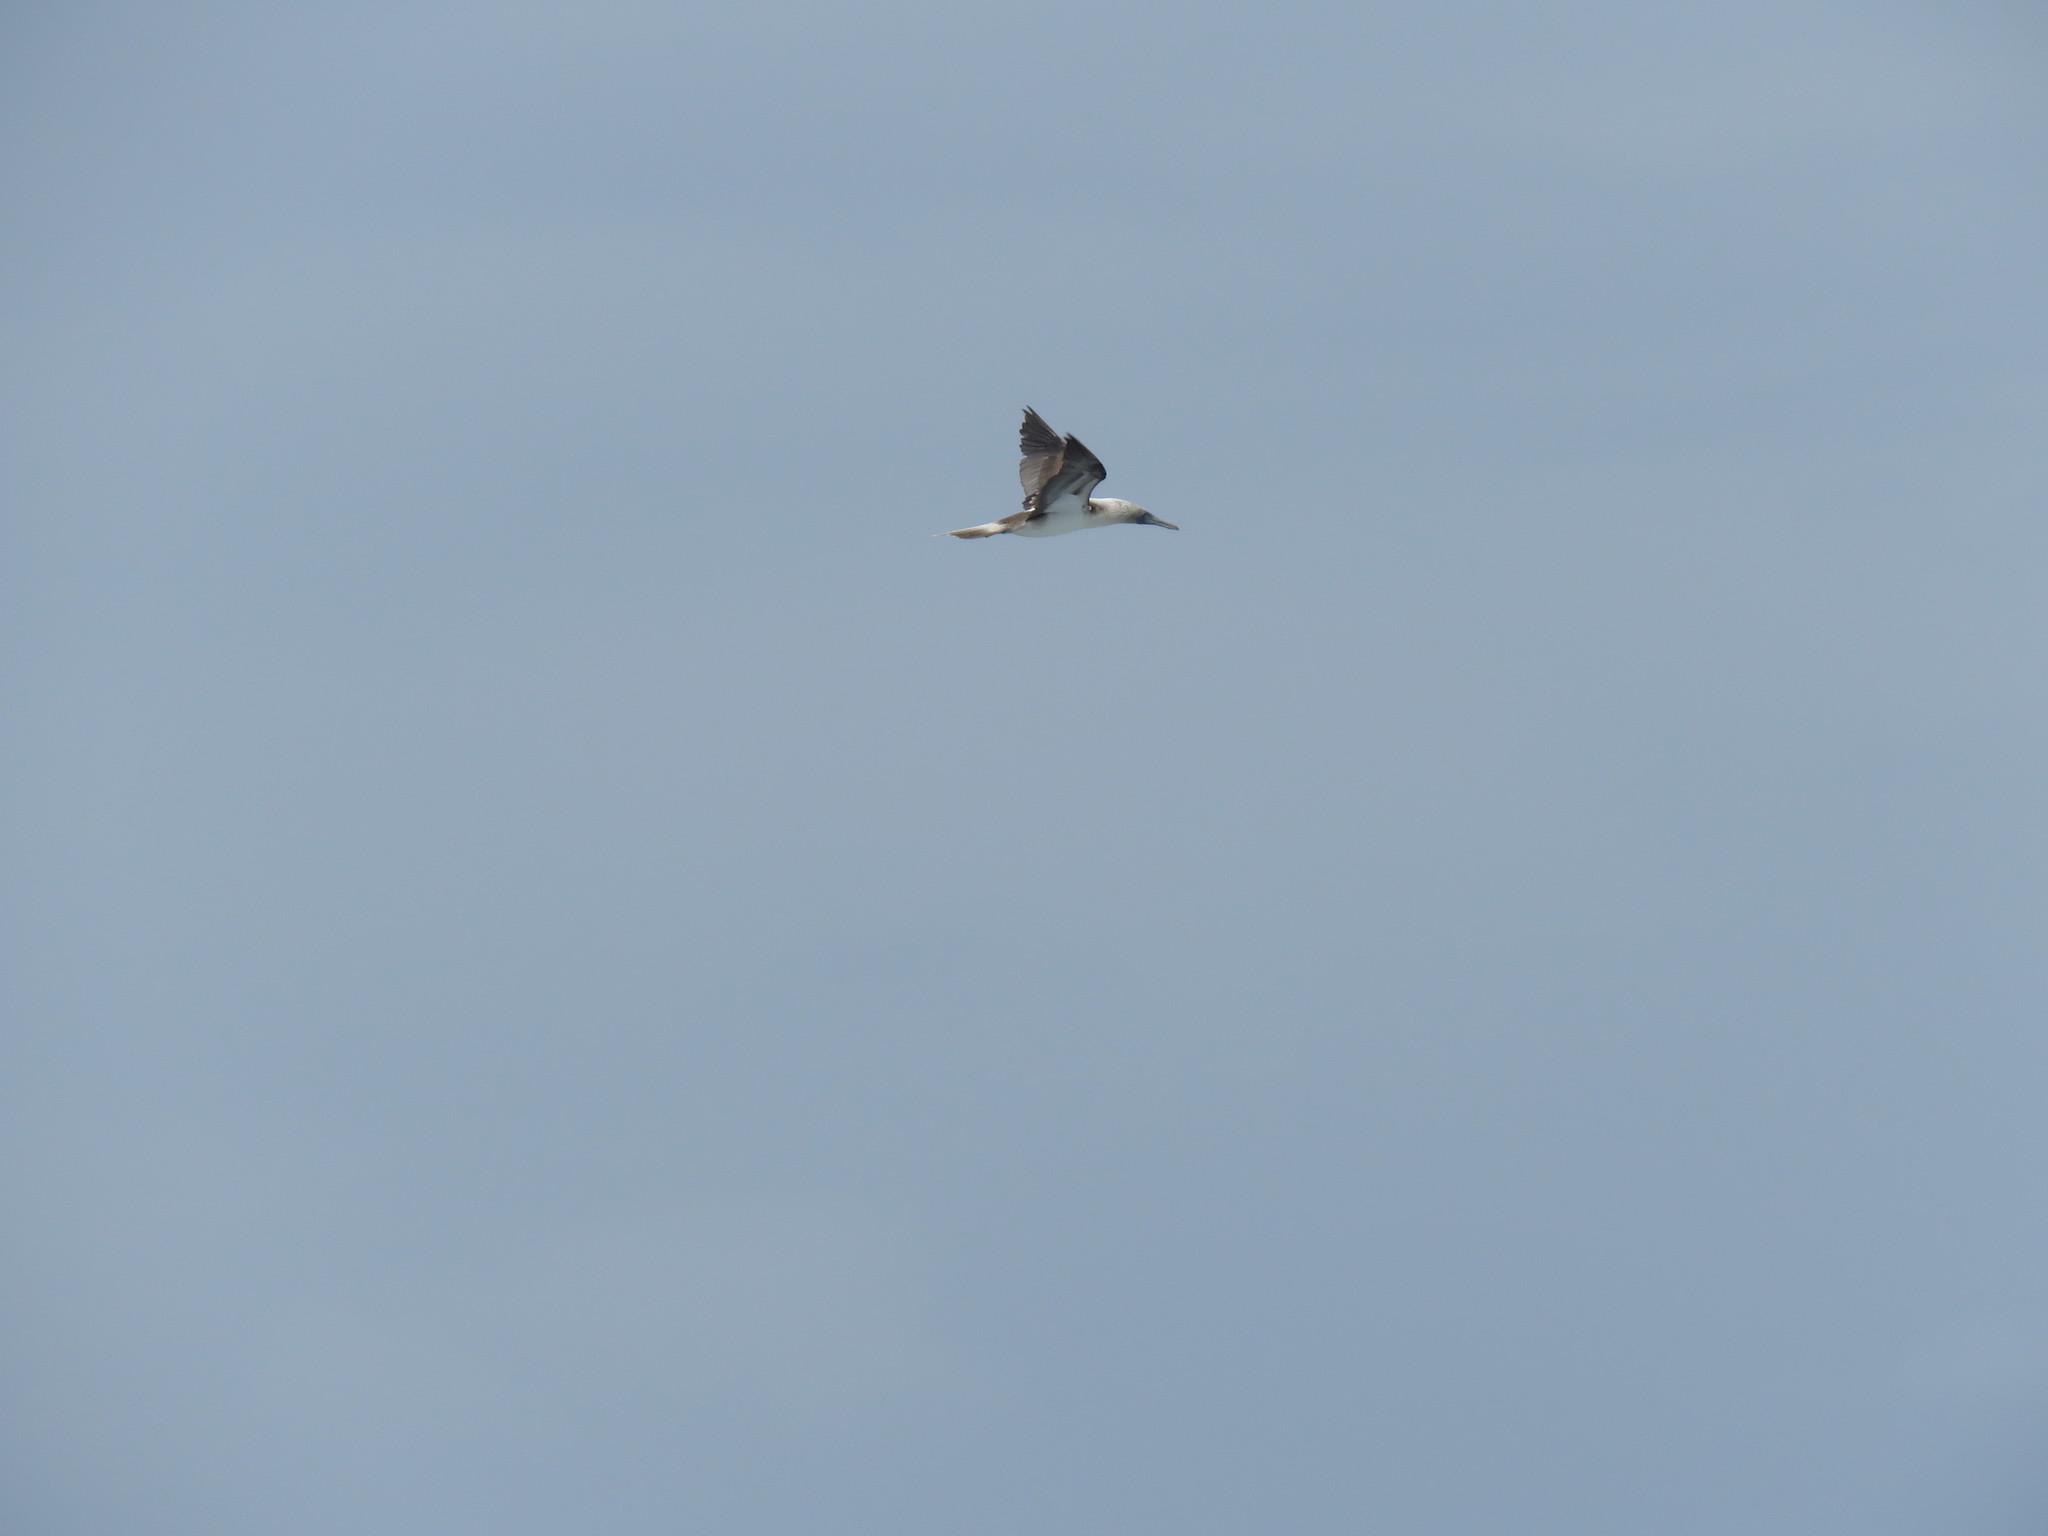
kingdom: Animalia
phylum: Chordata
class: Aves
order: Suliformes
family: Sulidae
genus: Sula
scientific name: Sula nebouxii
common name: Blue-footed booby
